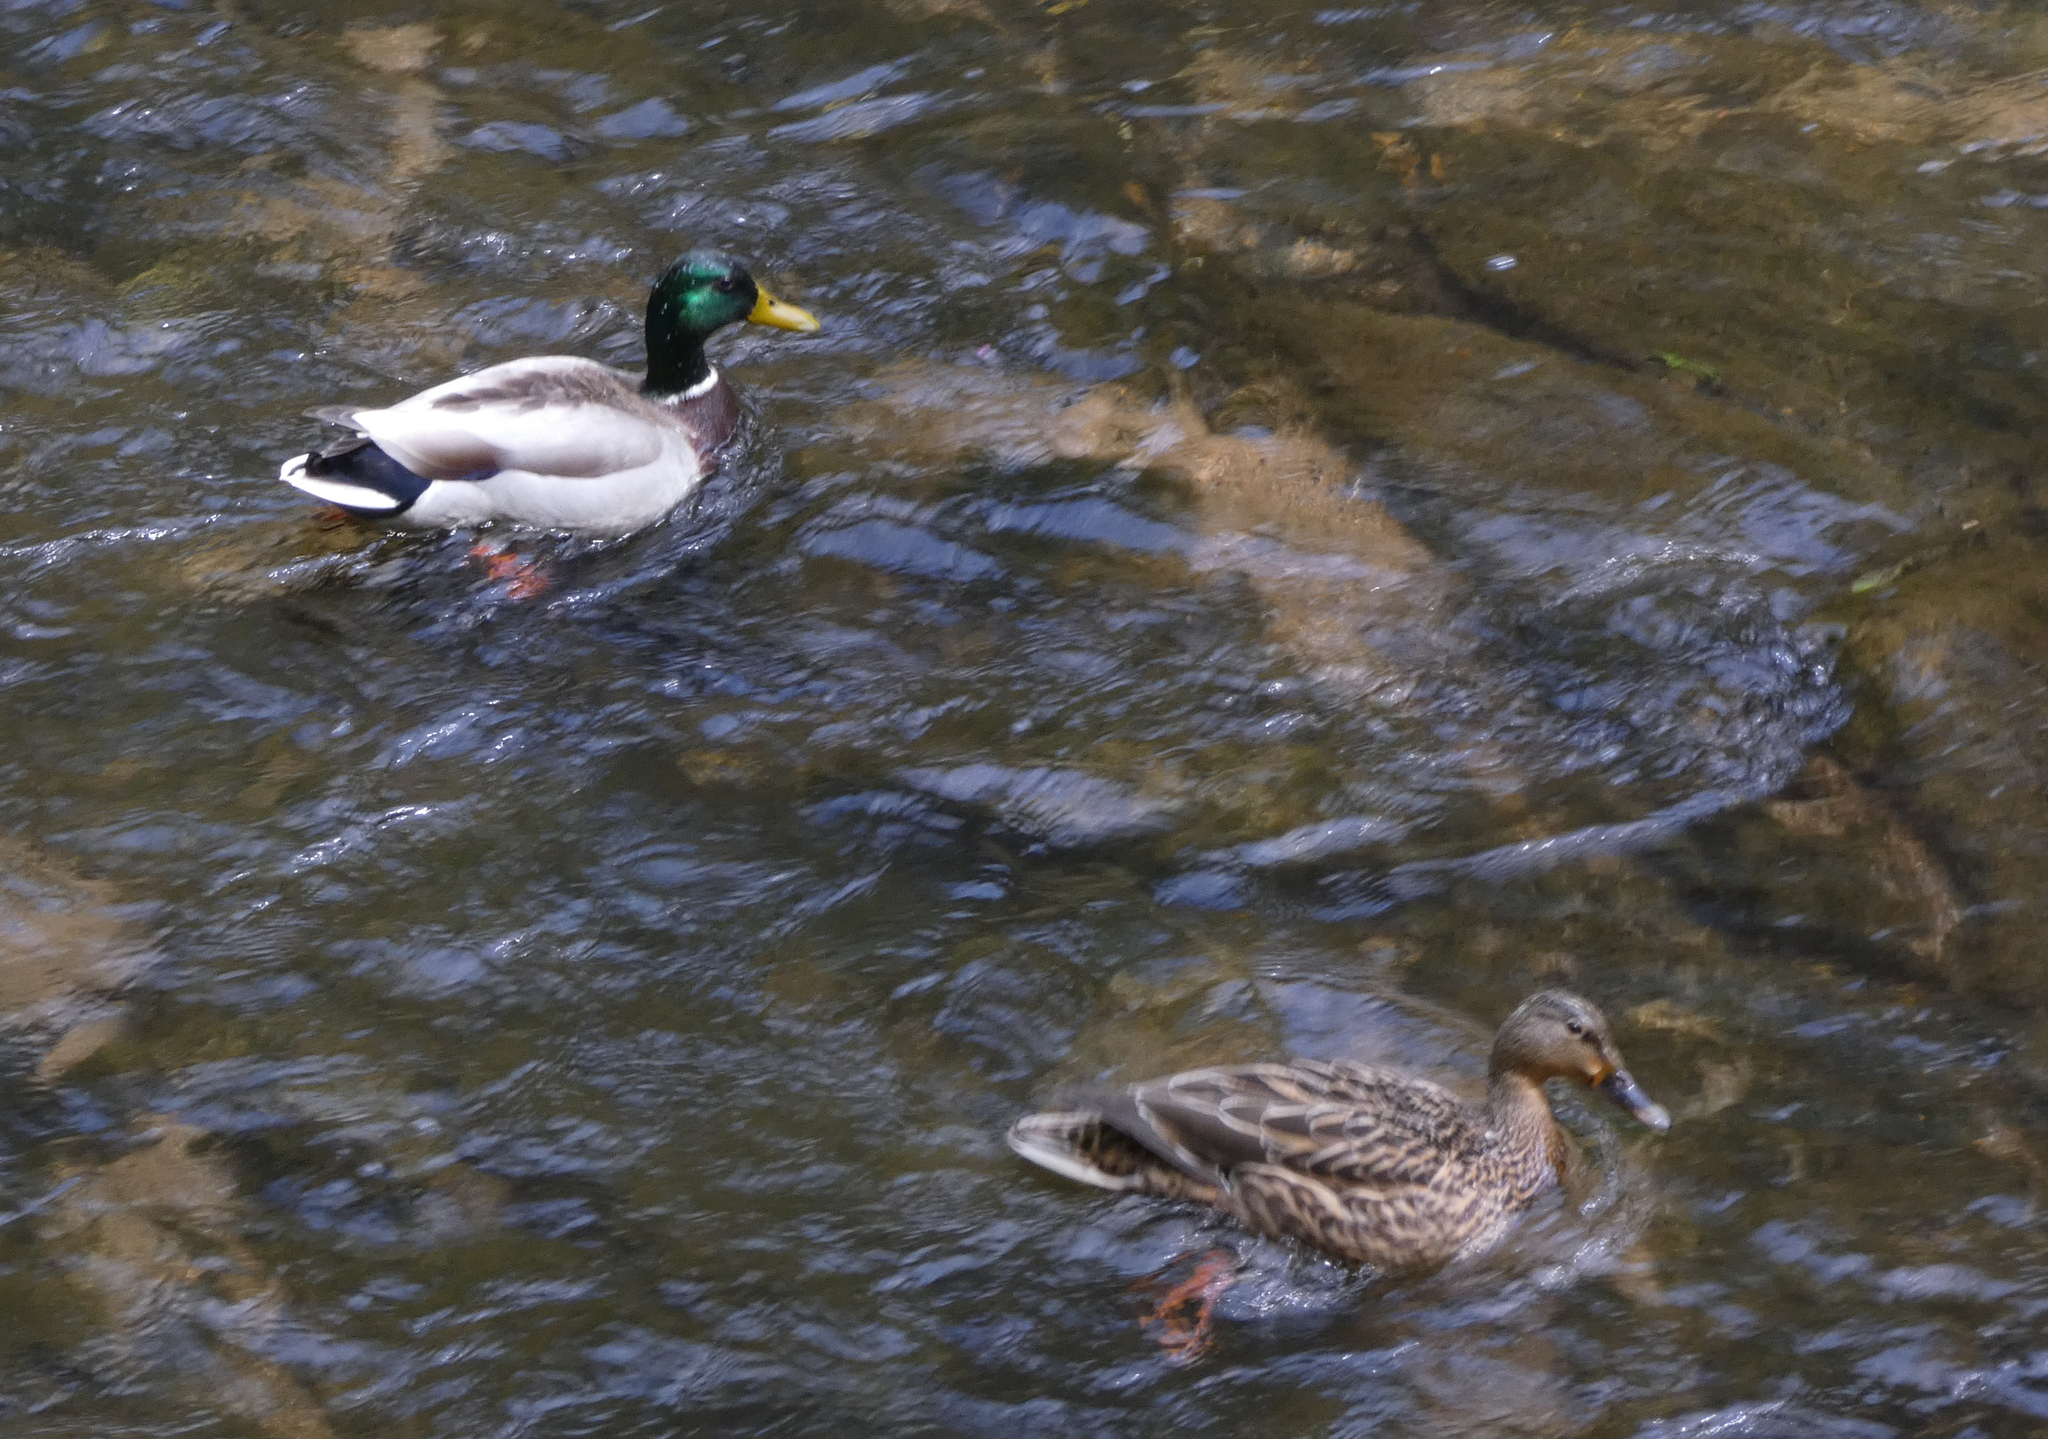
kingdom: Animalia
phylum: Chordata
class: Aves
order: Anseriformes
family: Anatidae
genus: Anas
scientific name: Anas platyrhynchos
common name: Mallard
